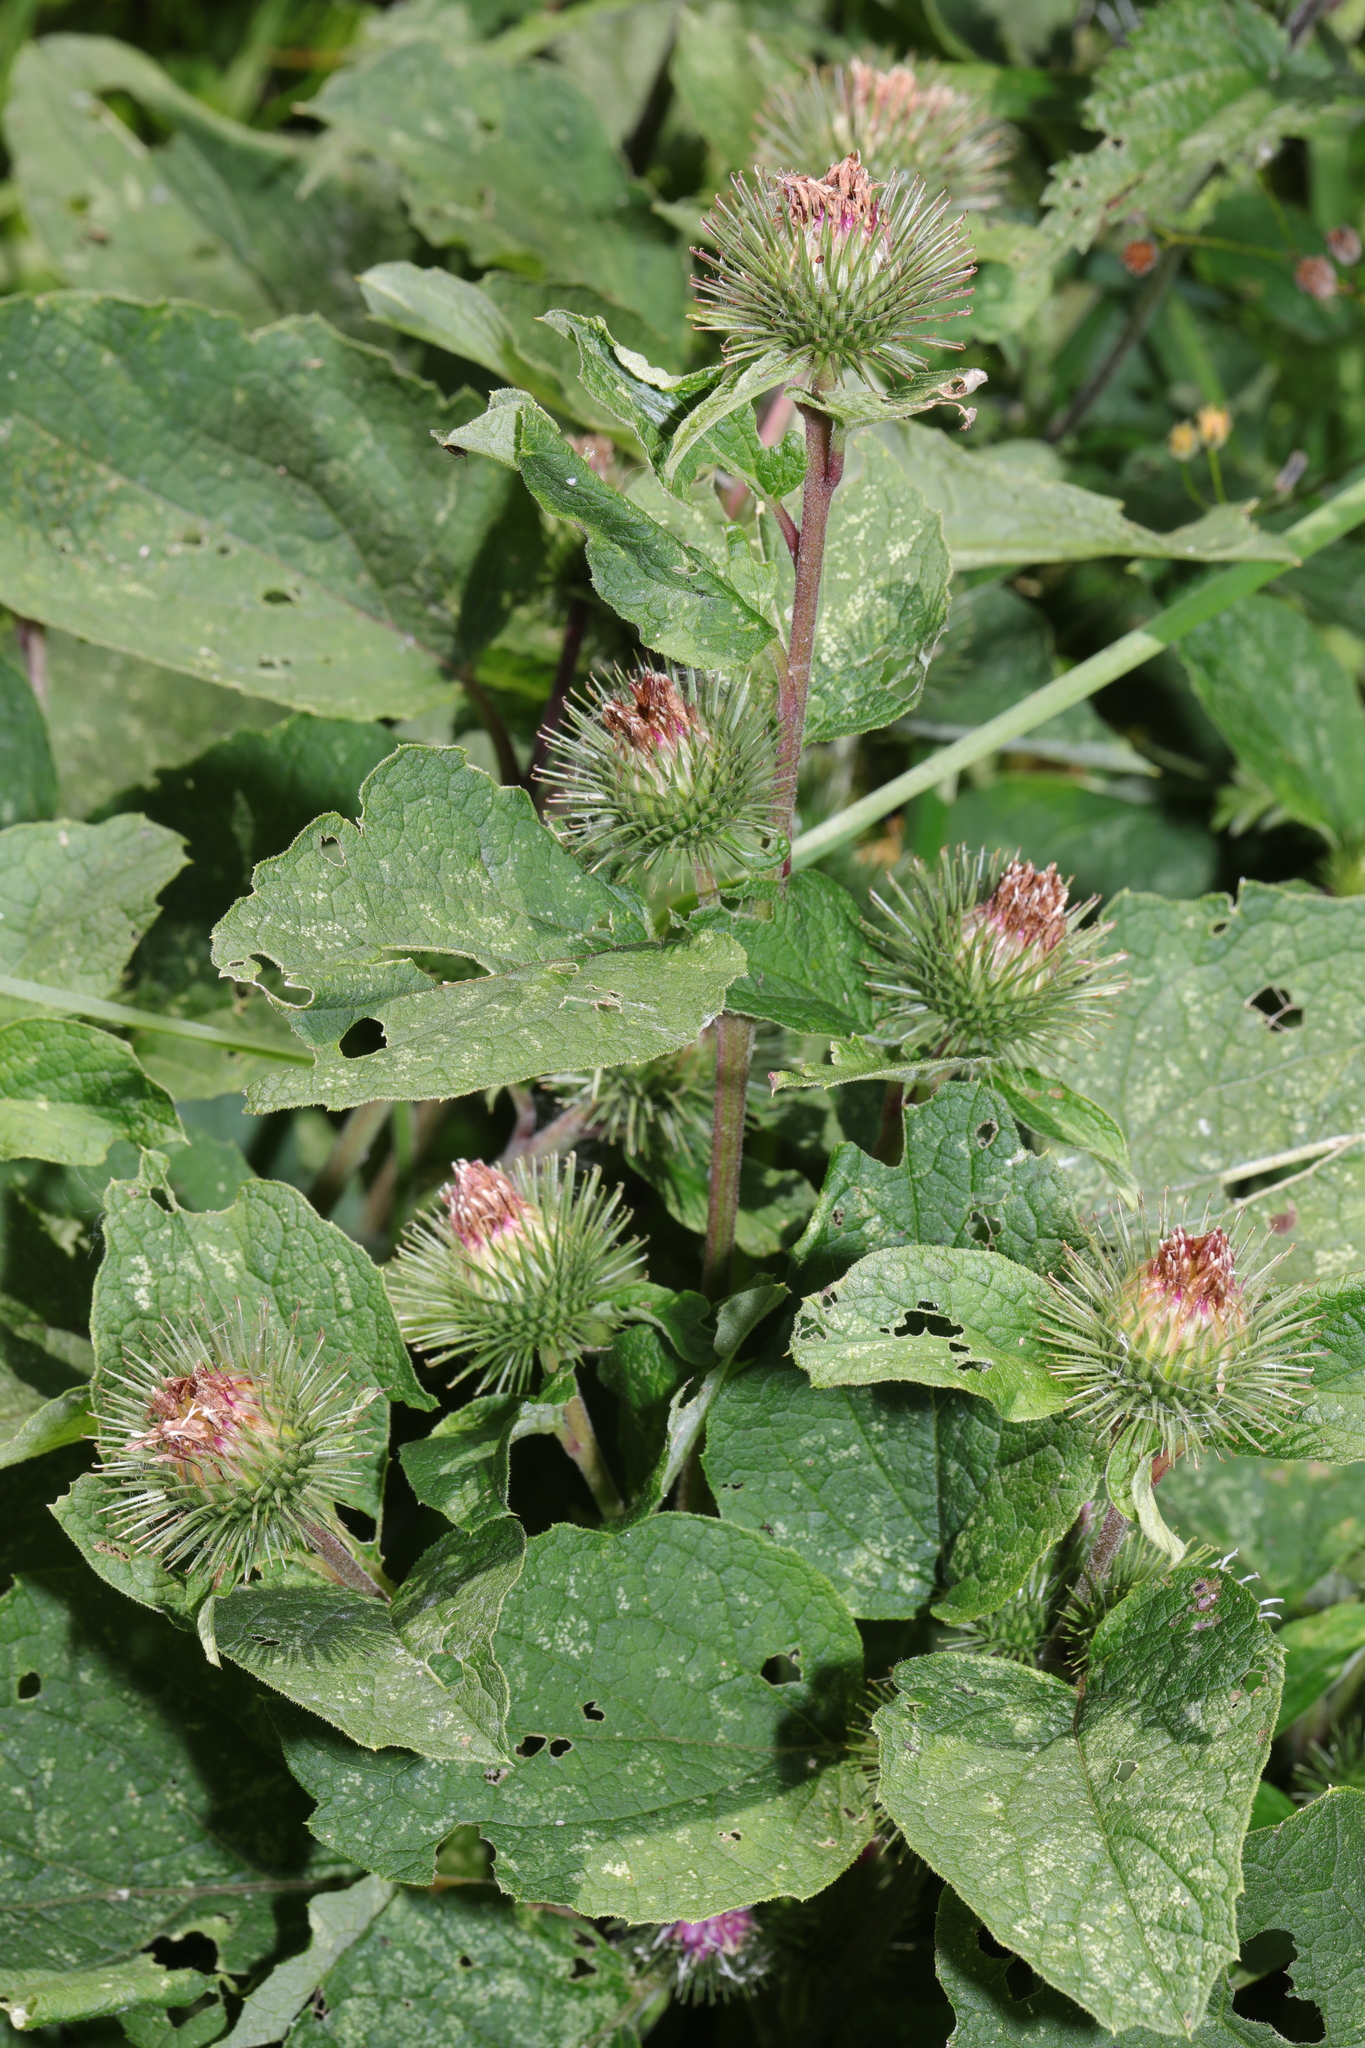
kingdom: Plantae
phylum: Tracheophyta
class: Magnoliopsida
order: Asterales
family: Asteraceae
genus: Arctium
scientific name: Arctium minus
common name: Lesser burdock
